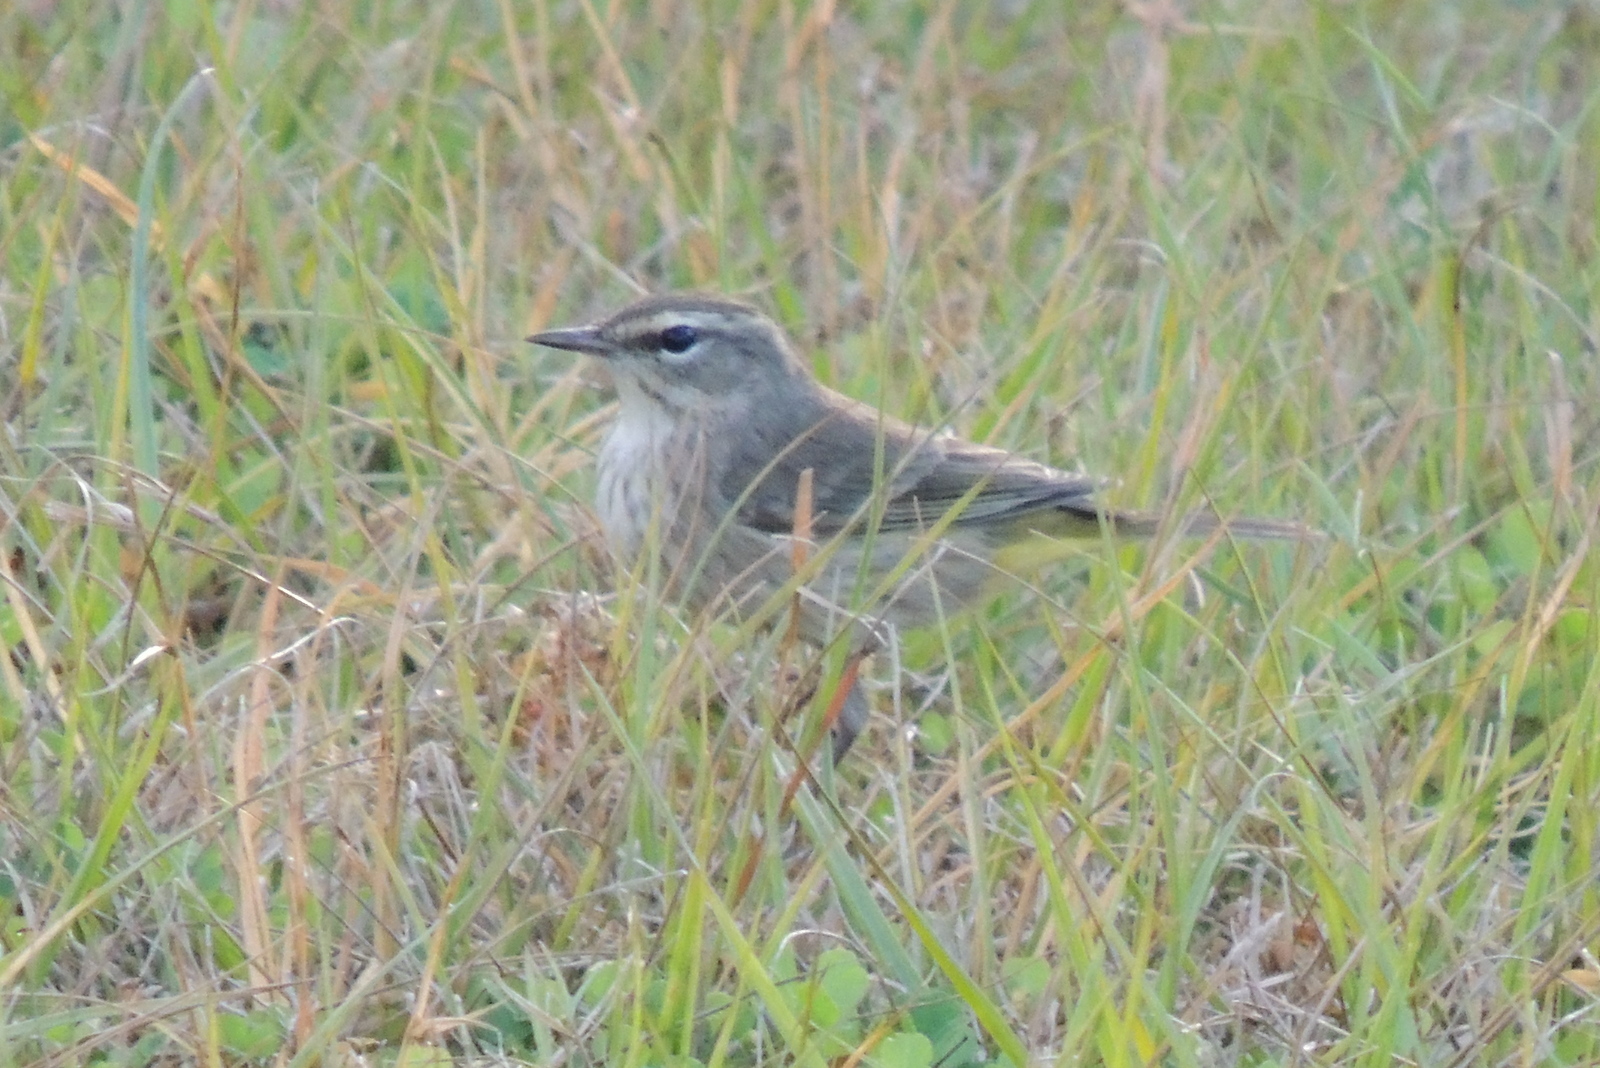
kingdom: Animalia
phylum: Chordata
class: Aves
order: Passeriformes
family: Parulidae
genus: Setophaga
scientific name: Setophaga palmarum
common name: Palm warbler
